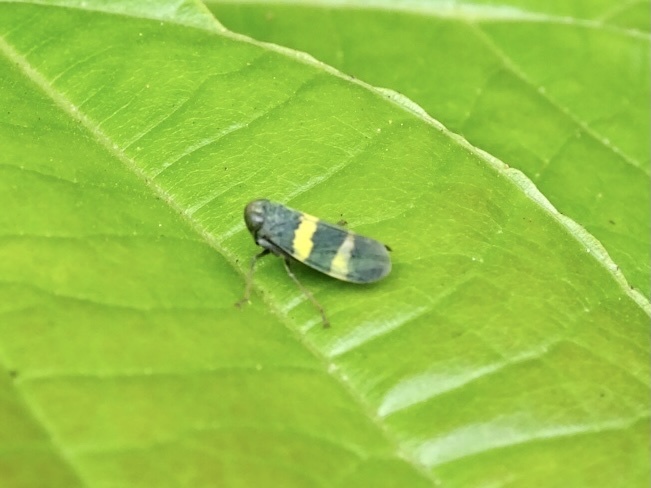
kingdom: Animalia
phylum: Arthropoda
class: Insecta
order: Hemiptera
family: Cicadellidae
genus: Olidiana
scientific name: Olidiana brevis
